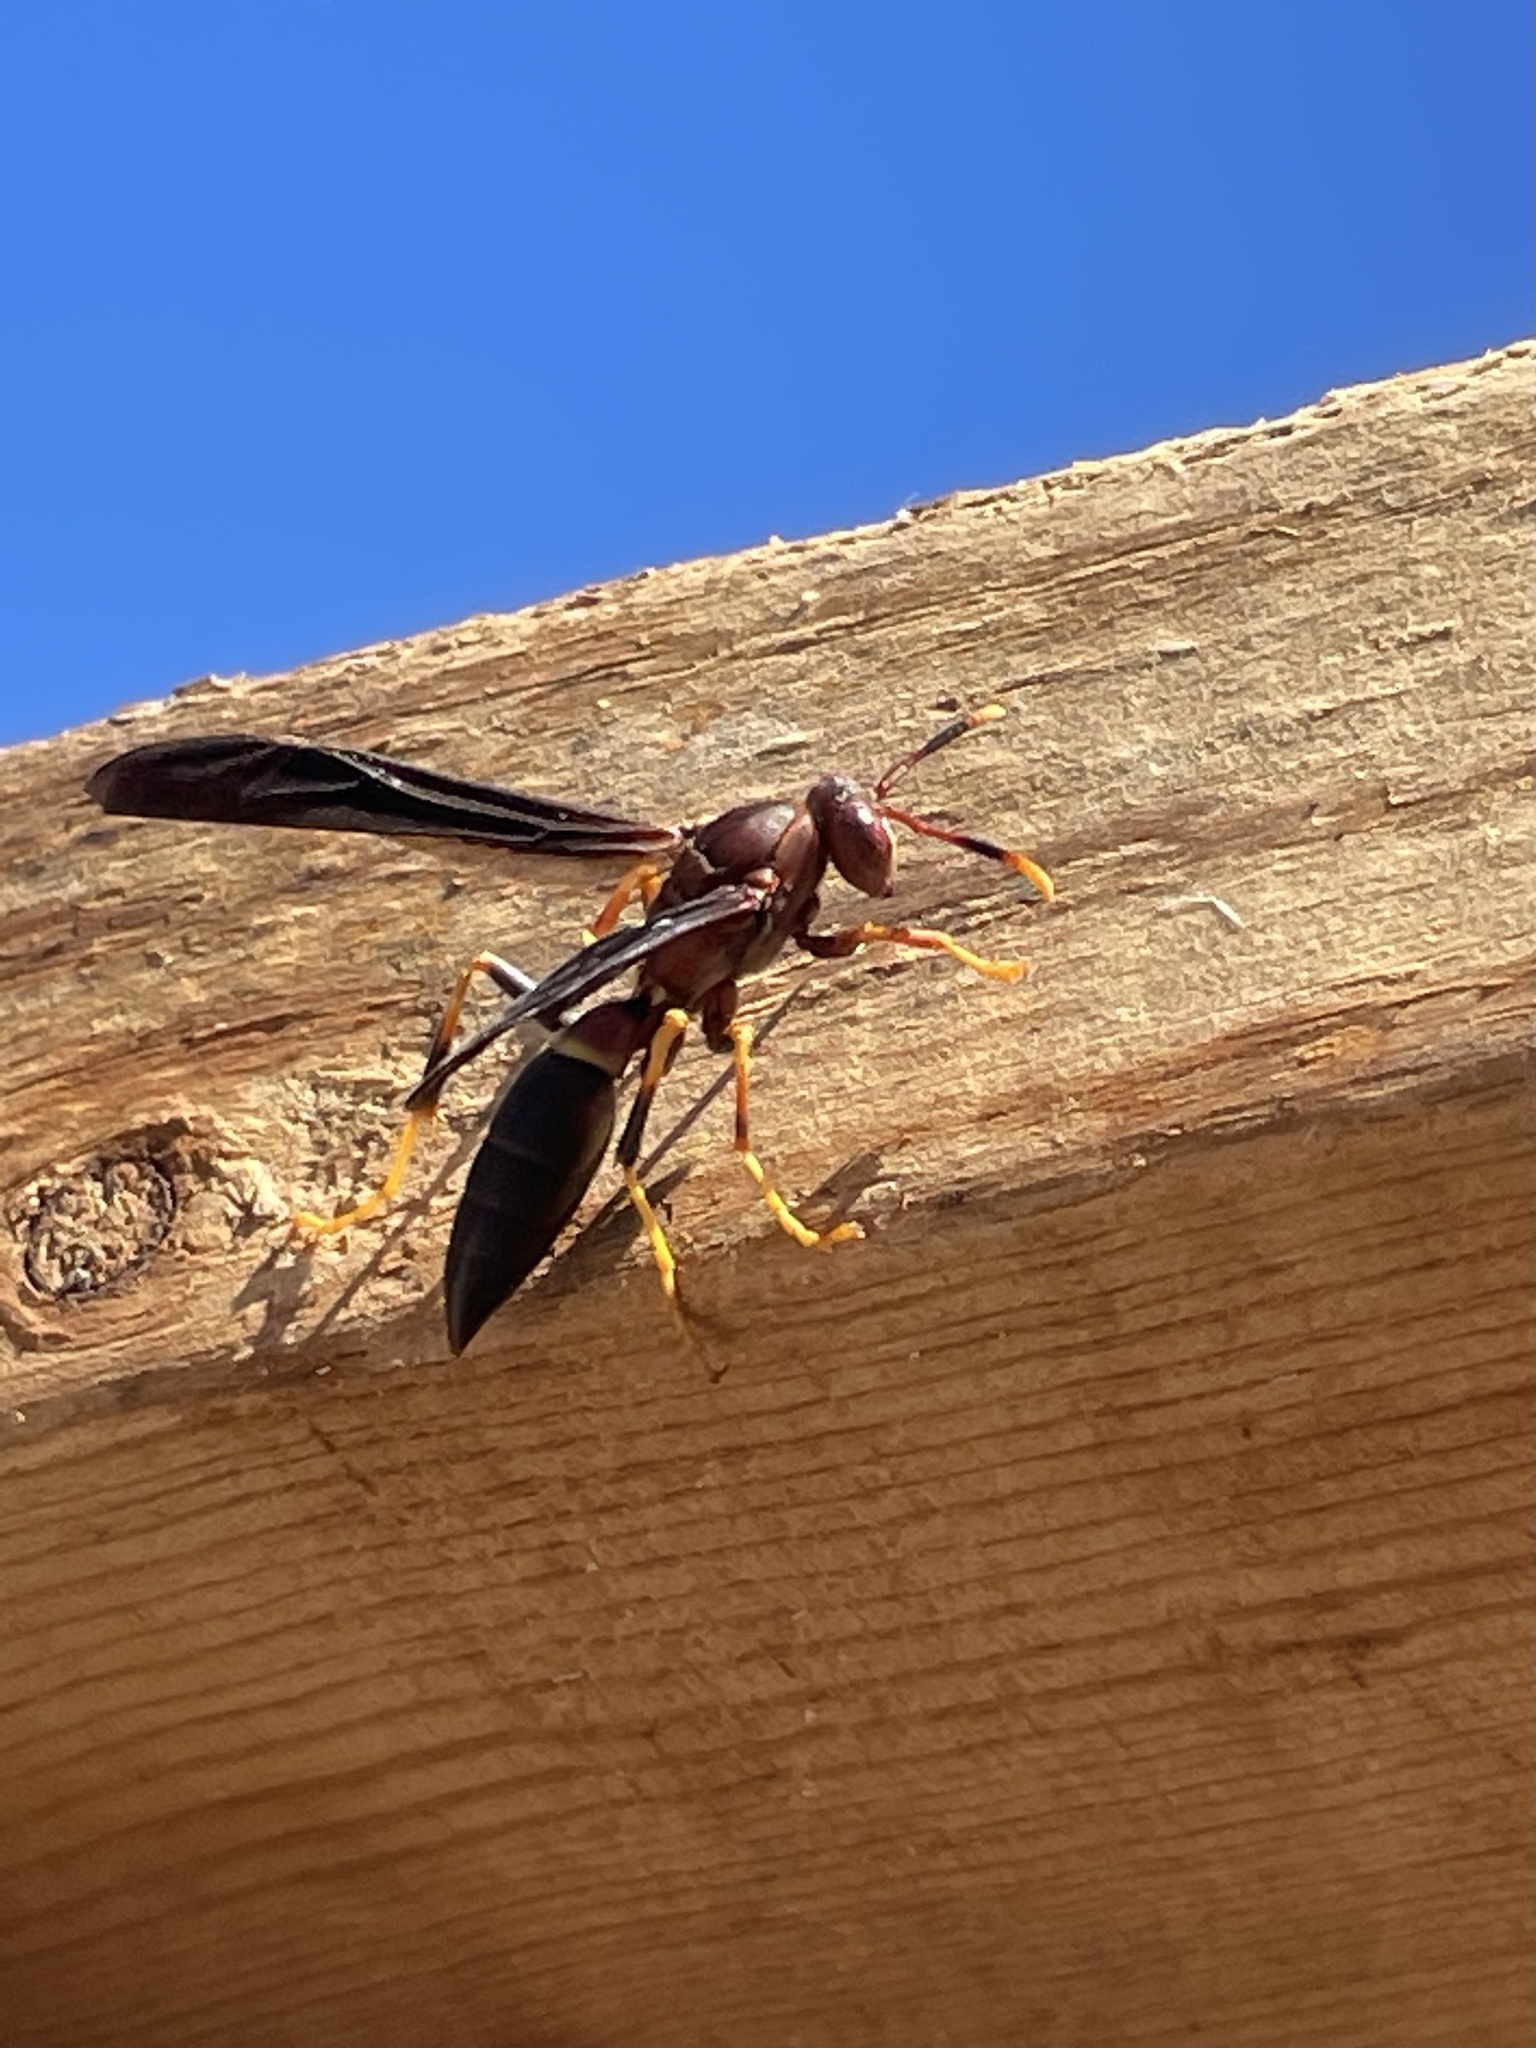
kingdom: Animalia
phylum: Arthropoda
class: Insecta
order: Hymenoptera
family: Eumenidae
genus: Polistes
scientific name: Polistes annularis
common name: Ringed paper wasp
